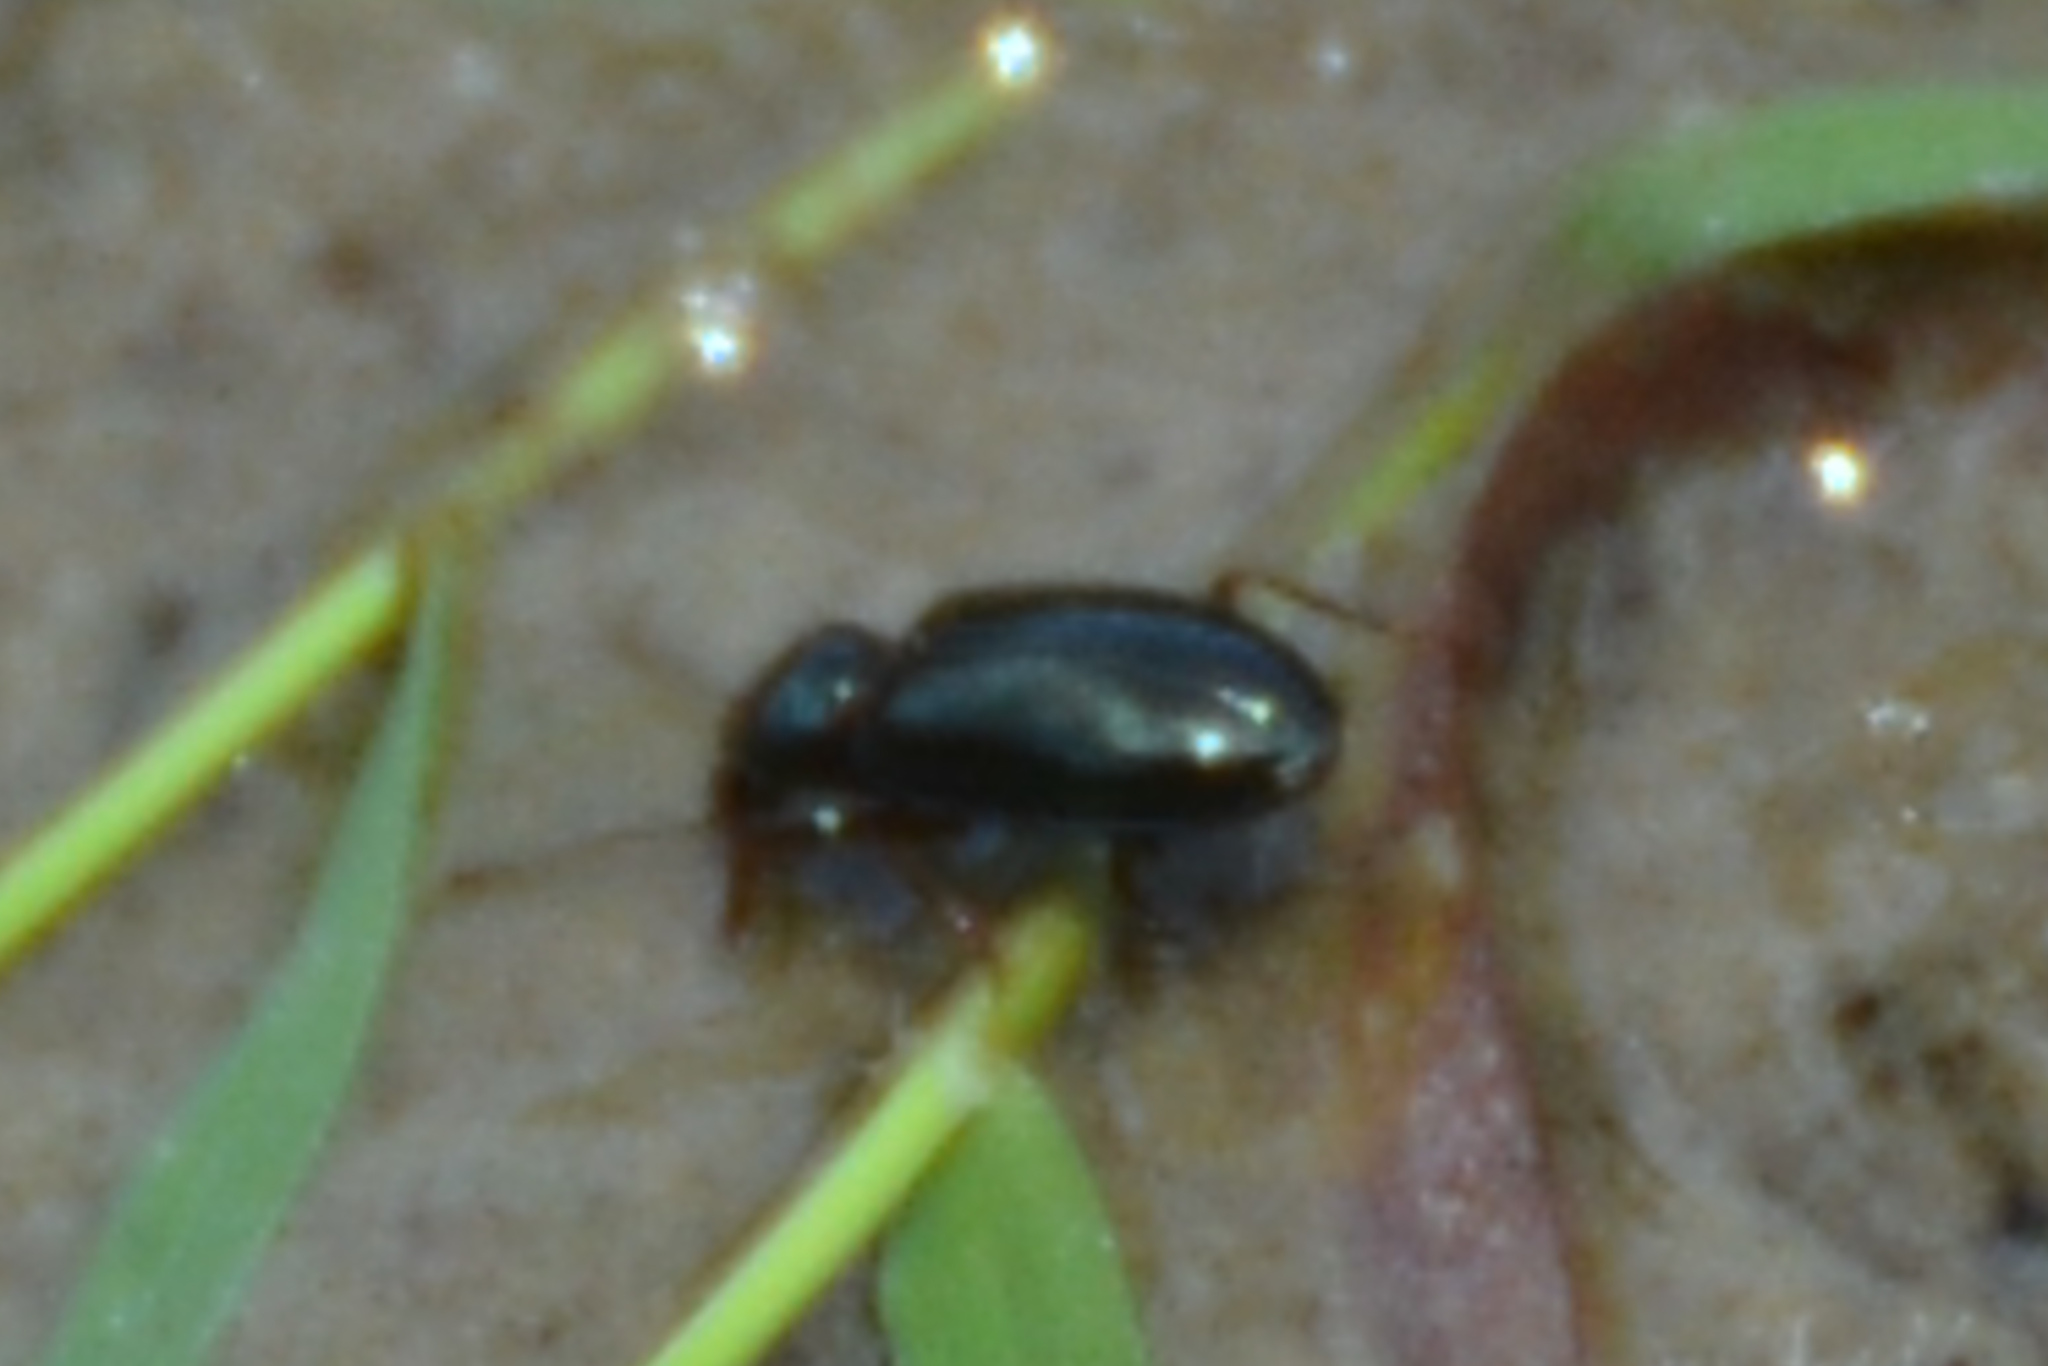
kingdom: Animalia
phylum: Arthropoda
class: Insecta
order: Coleoptera
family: Carabidae
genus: Semiardistomis
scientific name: Semiardistomis viridis
